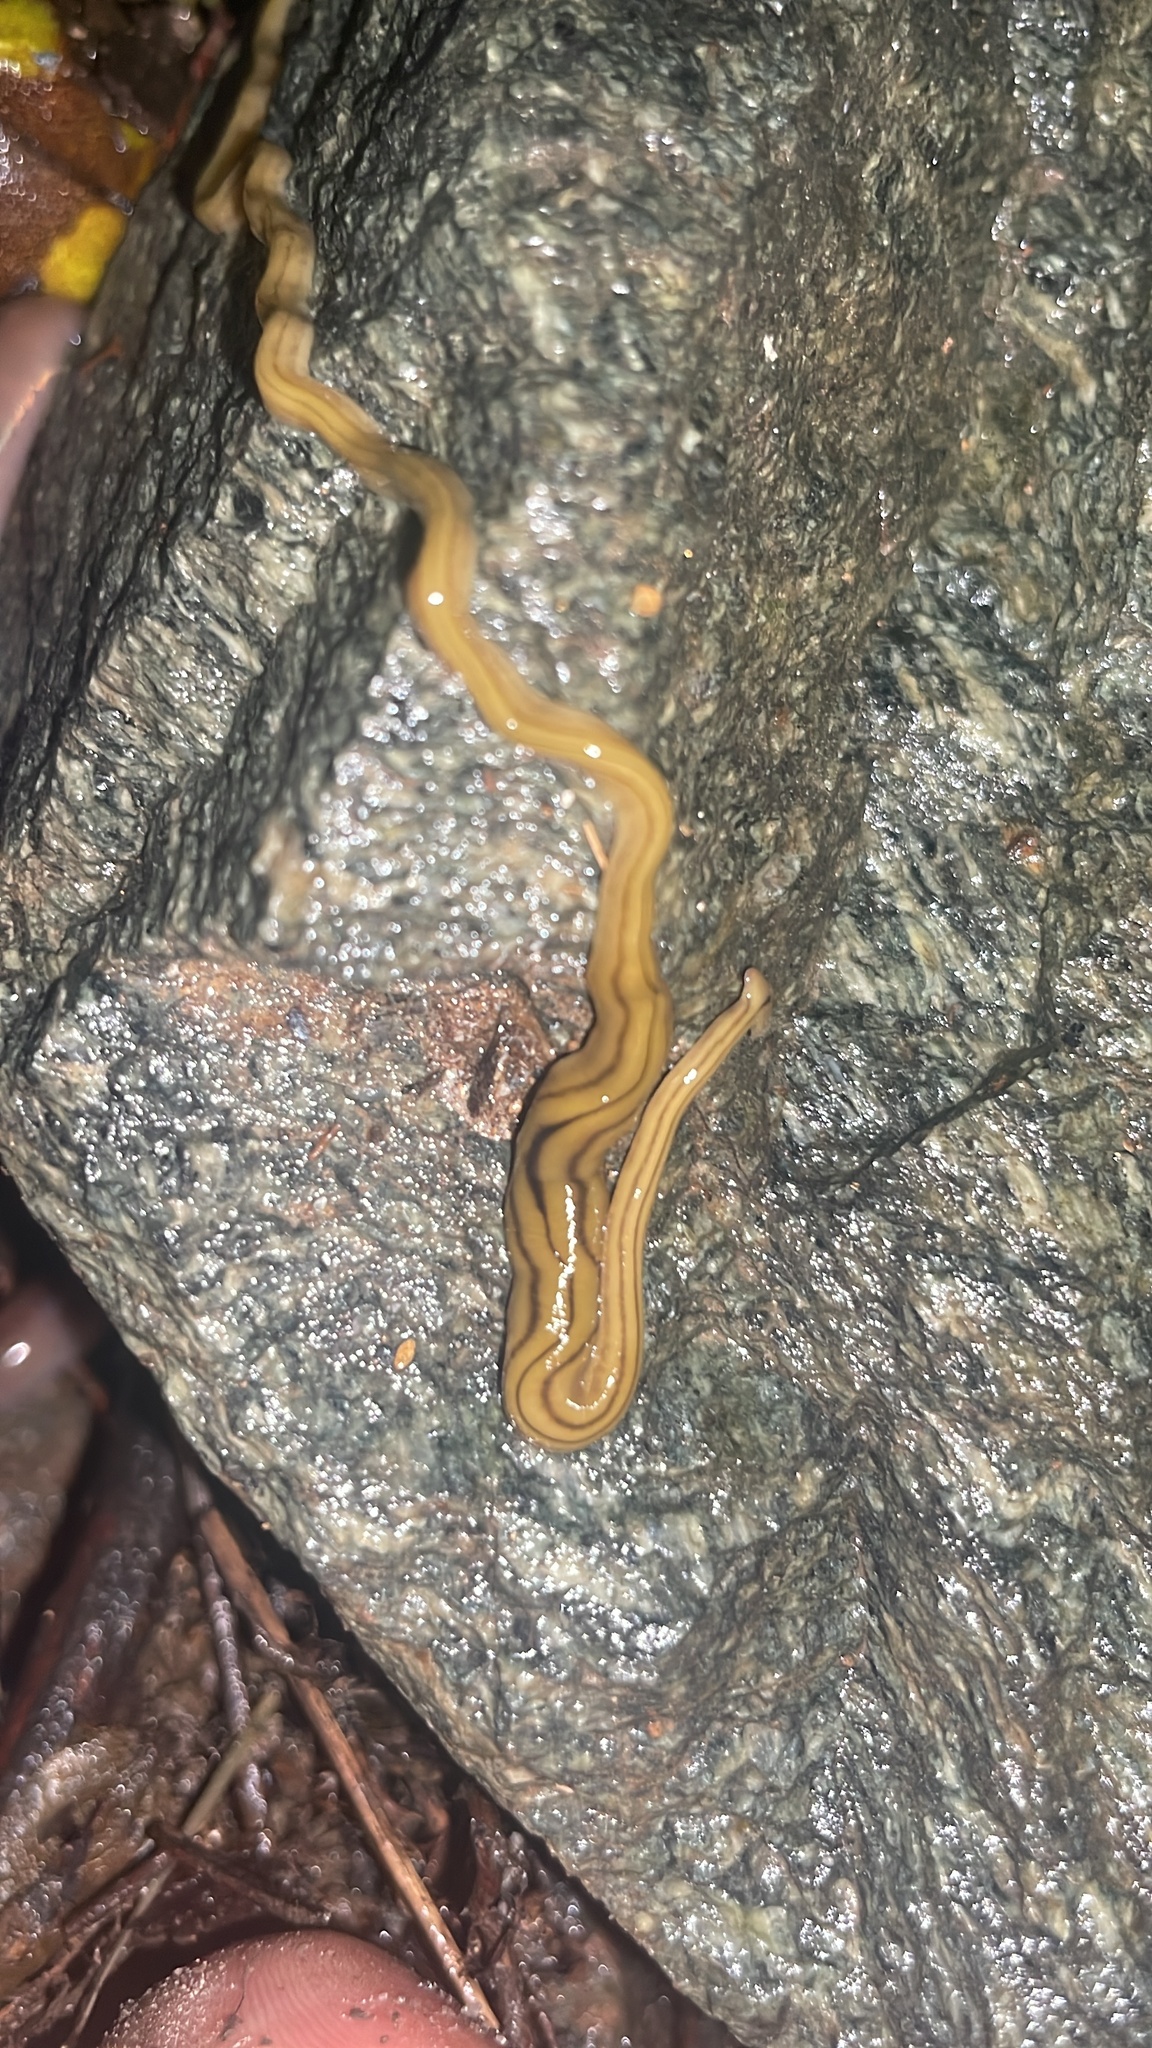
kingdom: Animalia
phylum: Platyhelminthes
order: Tricladida
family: Geoplanidae
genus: Diversibipalium
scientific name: Diversibipalium multilineatum
